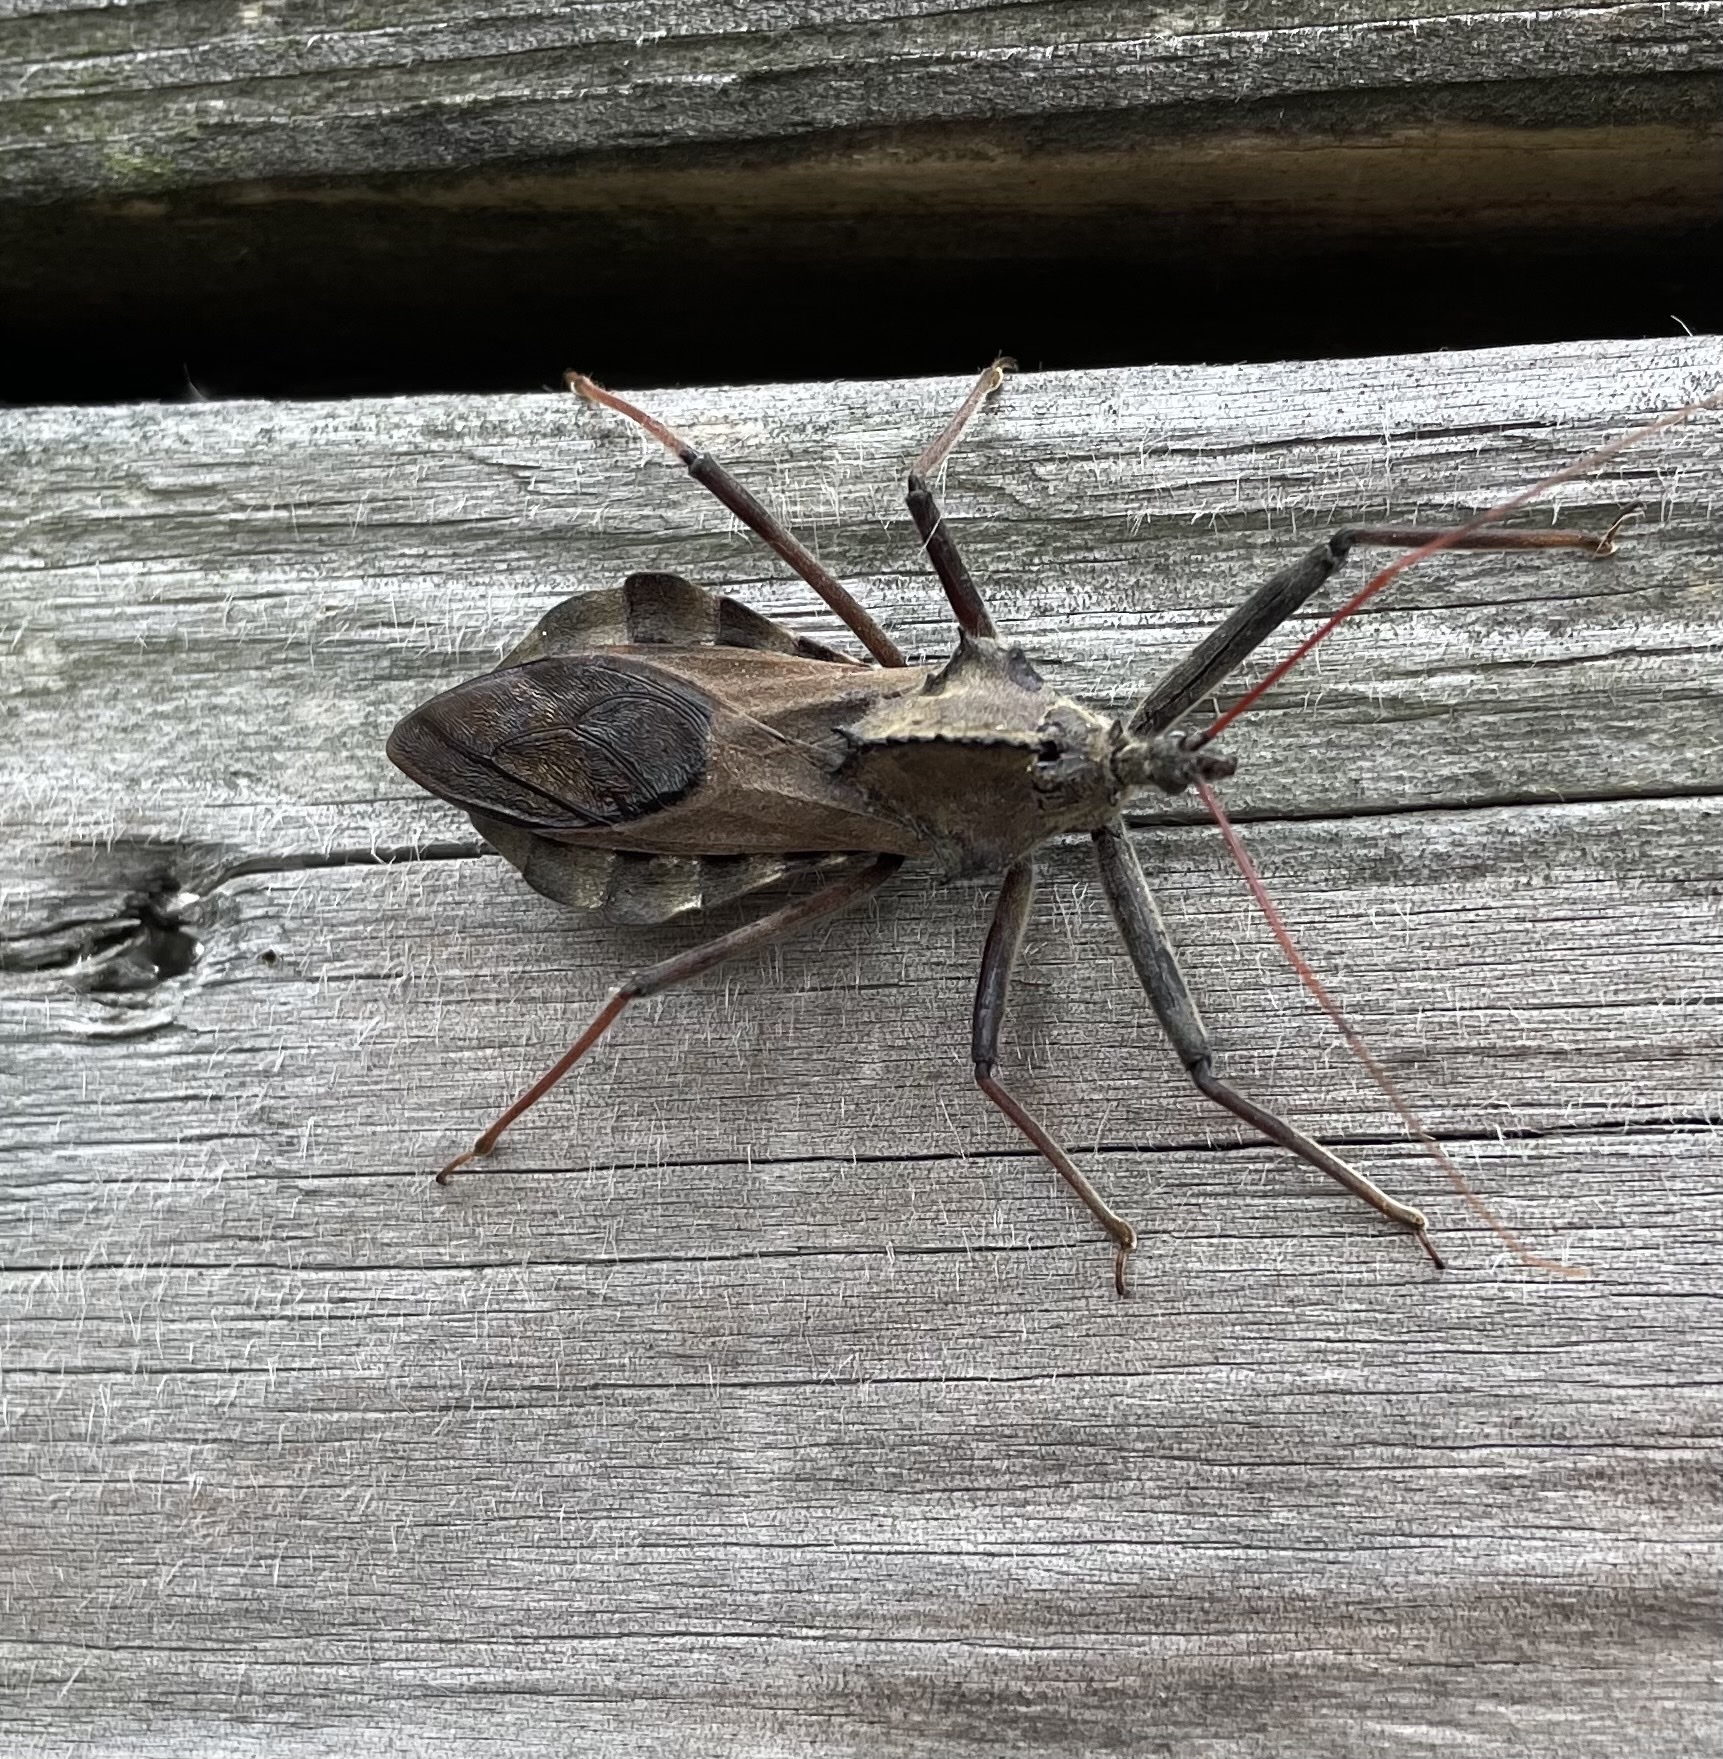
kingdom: Animalia
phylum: Arthropoda
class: Insecta
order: Hemiptera
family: Reduviidae
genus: Arilus
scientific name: Arilus cristatus
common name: North american wheel bug
